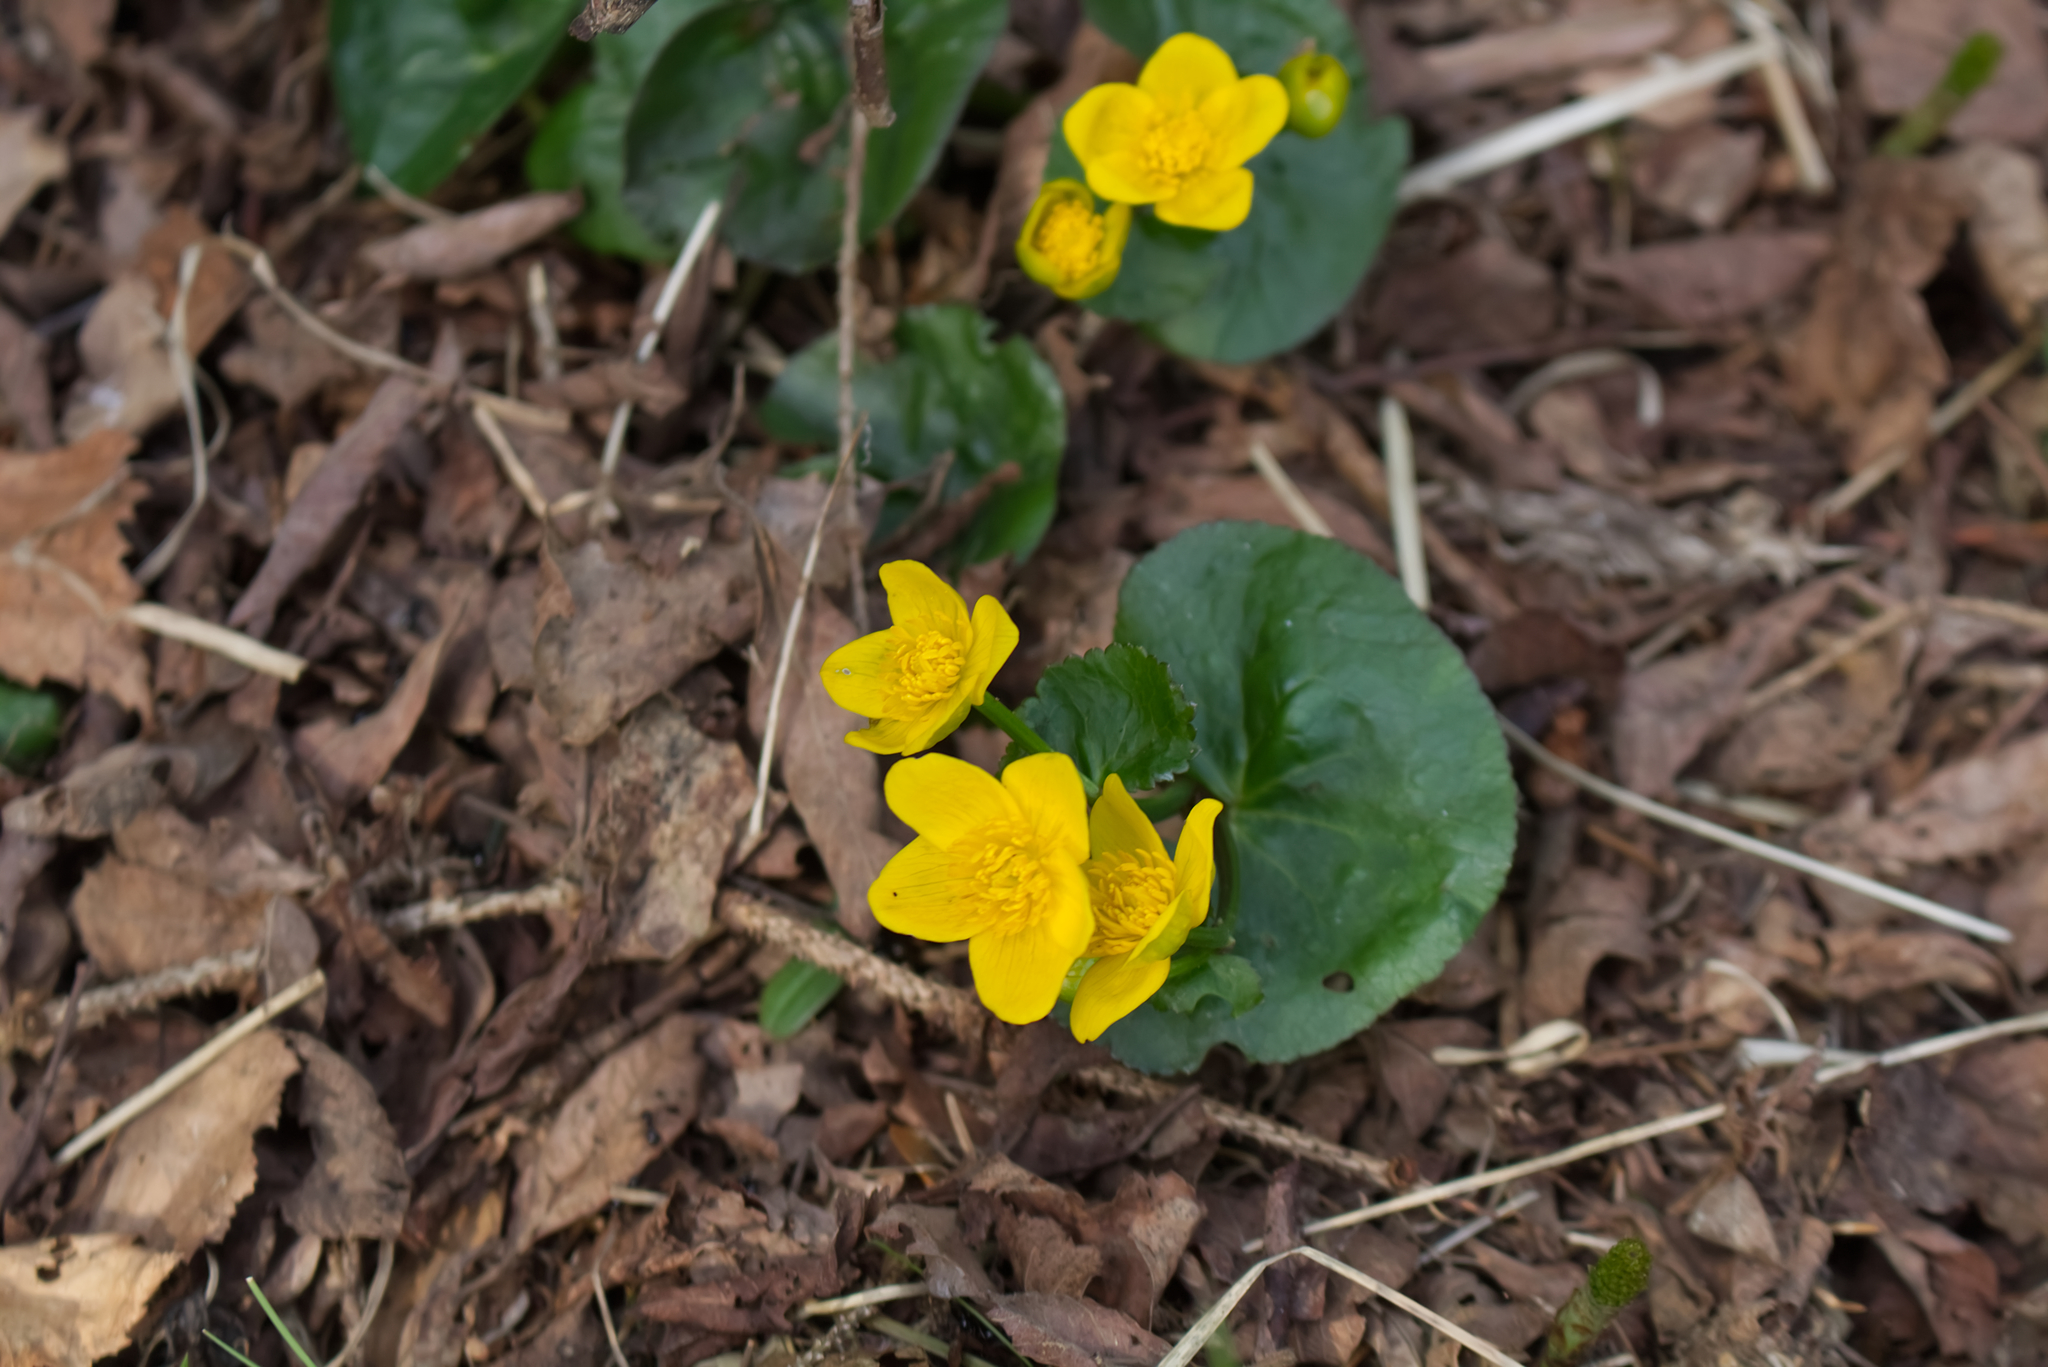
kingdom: Plantae
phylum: Tracheophyta
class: Magnoliopsida
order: Ranunculales
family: Ranunculaceae
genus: Caltha
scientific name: Caltha palustris
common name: Marsh marigold
